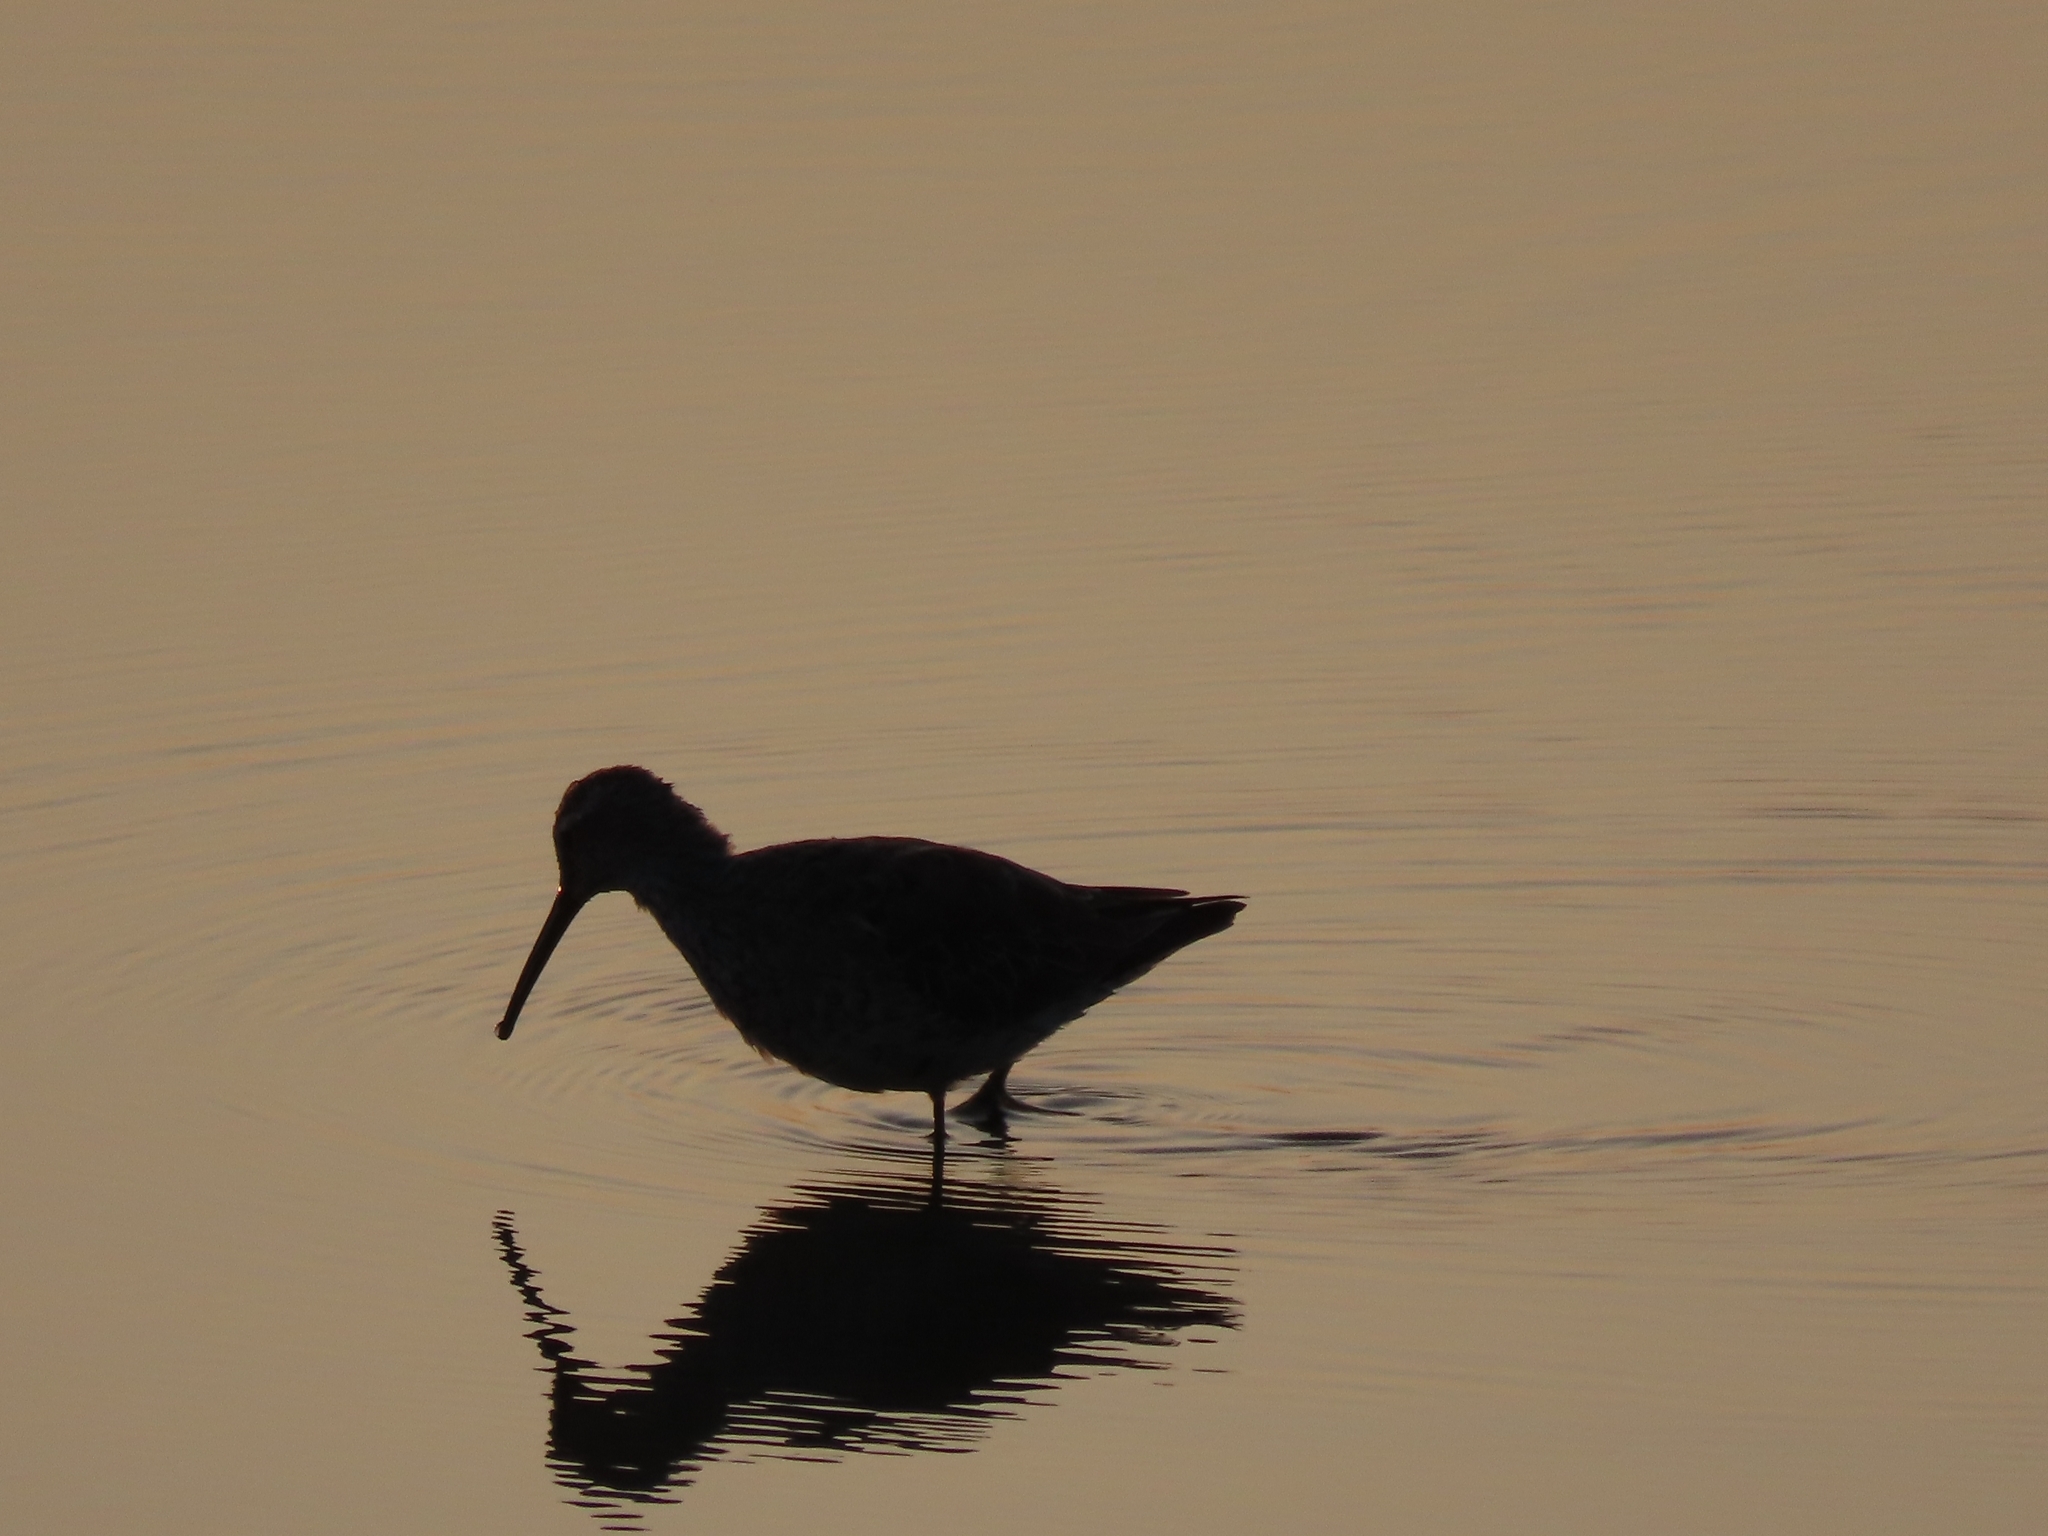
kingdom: Animalia
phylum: Chordata
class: Aves
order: Charadriiformes
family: Scolopacidae
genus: Calidris
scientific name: Calidris himantopus
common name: Stilt sandpiper
